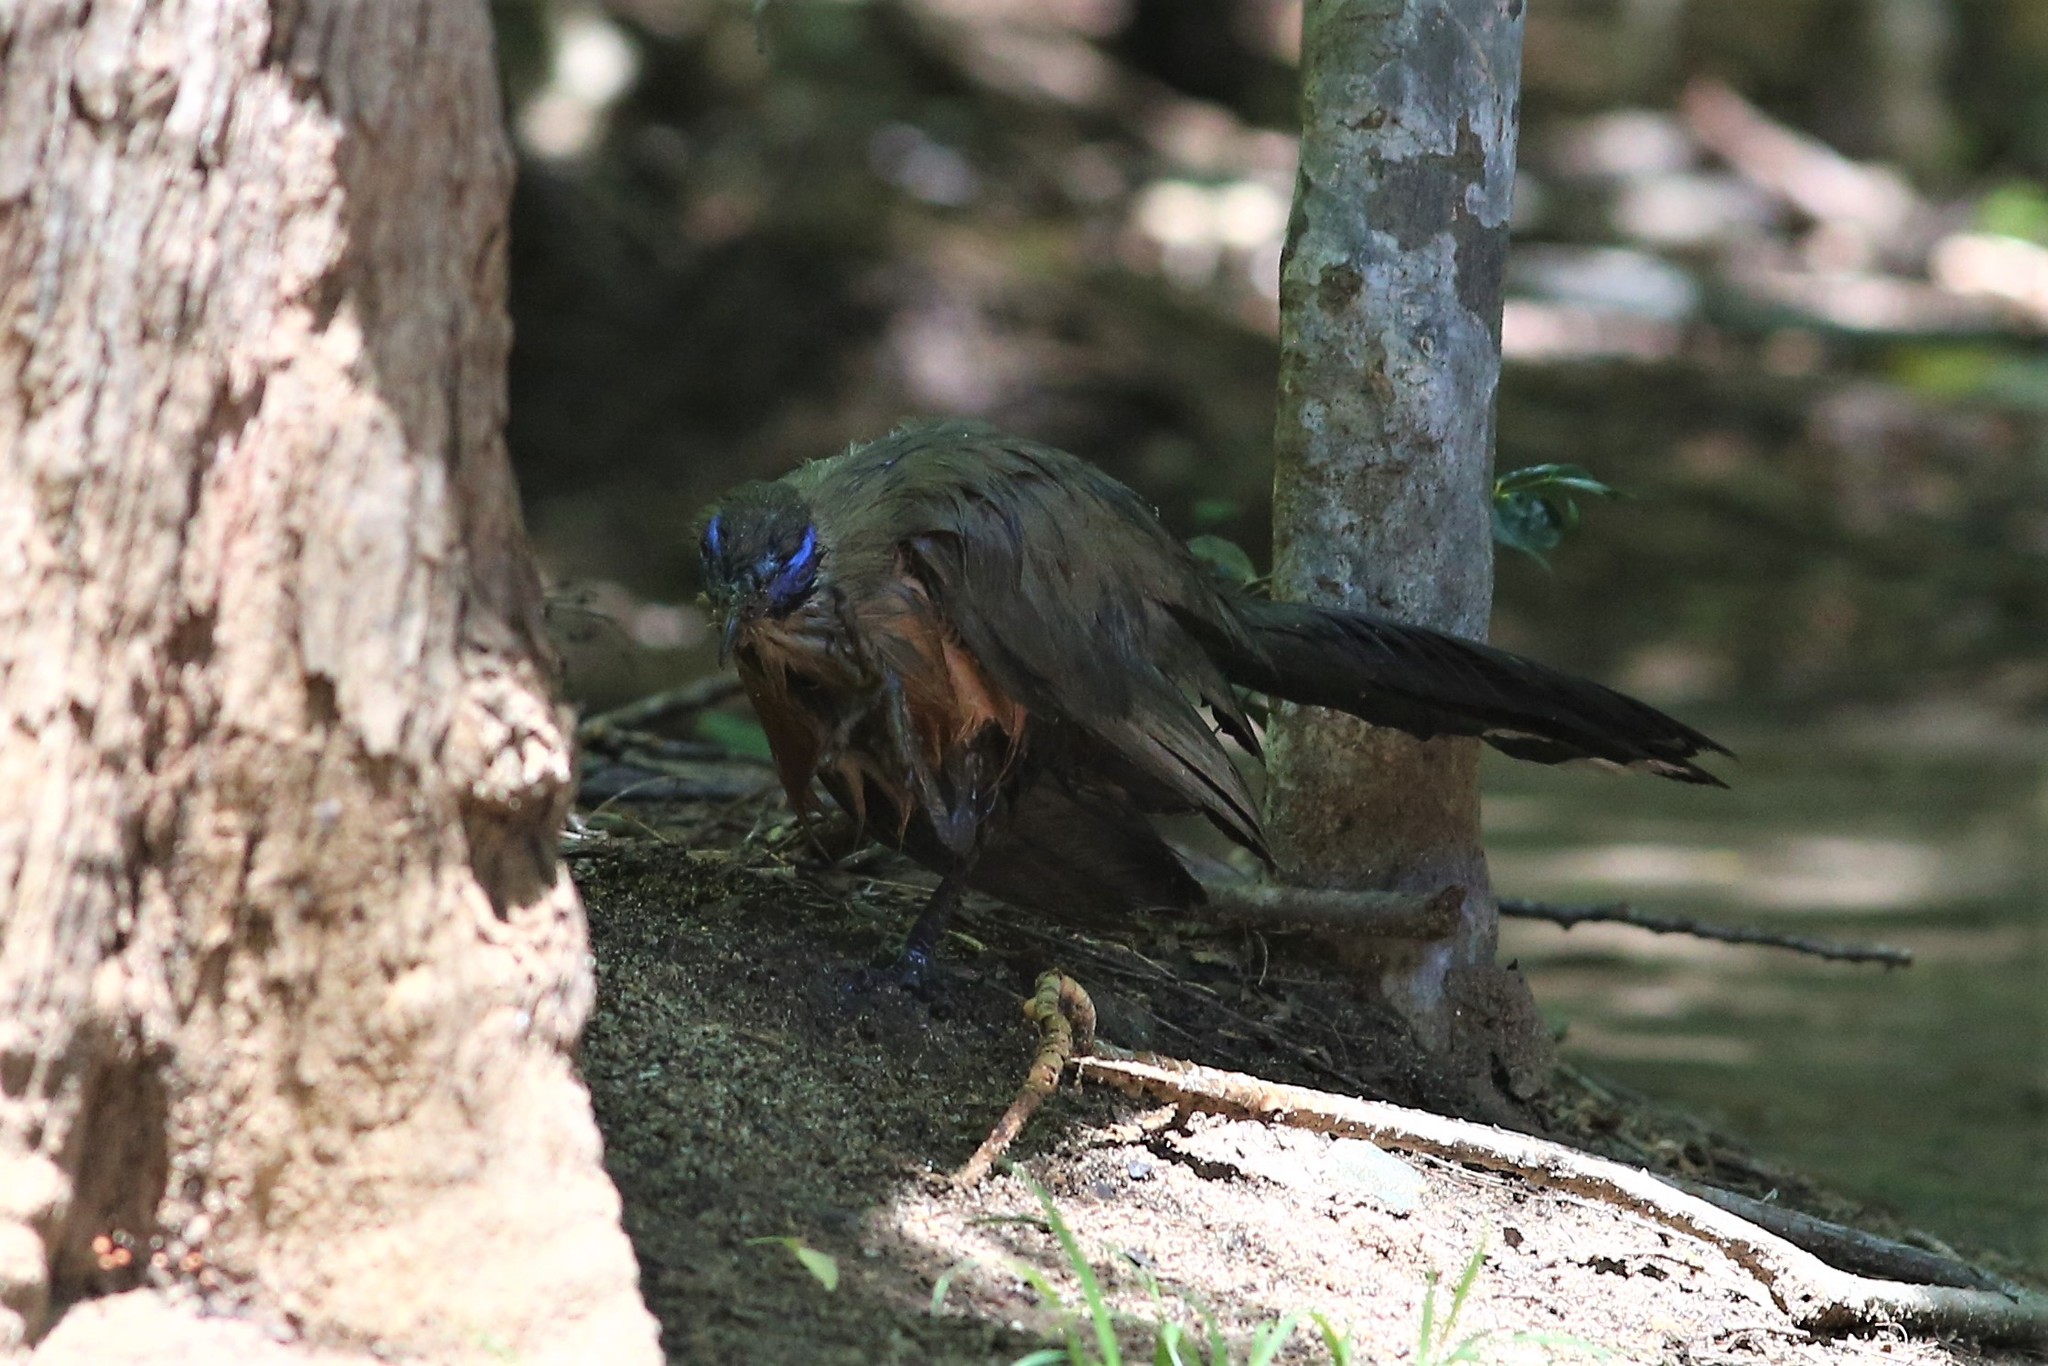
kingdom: Animalia
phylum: Chordata
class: Aves
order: Cuculiformes
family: Cuculidae
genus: Coua
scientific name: Coua gigas
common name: Giant coua
